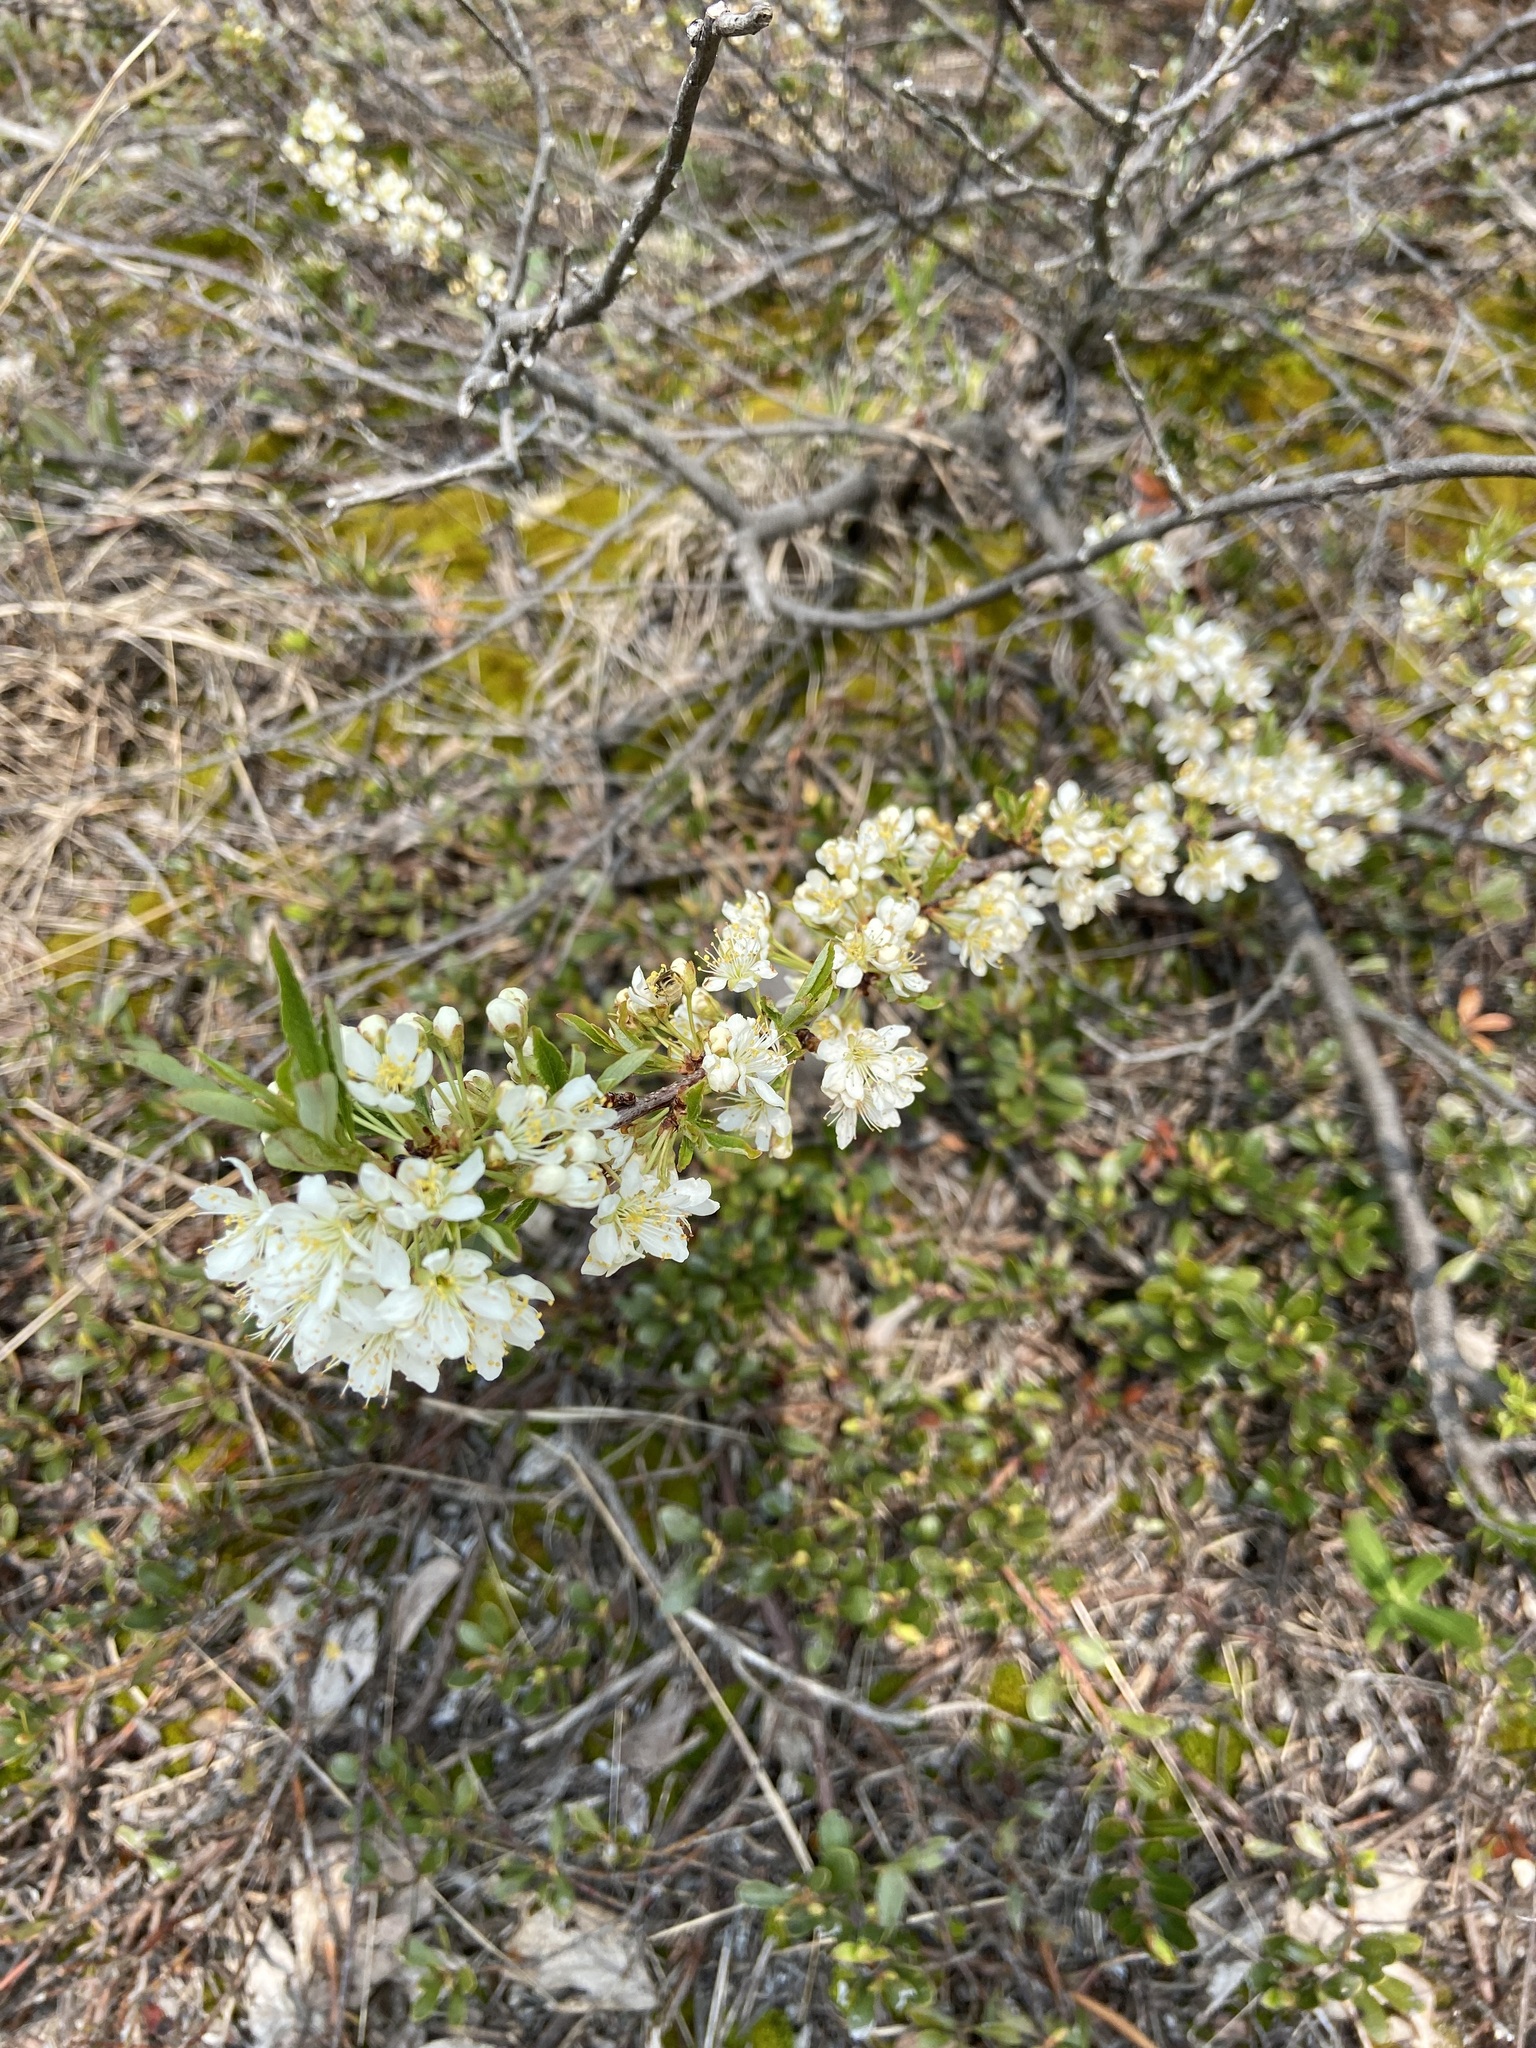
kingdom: Plantae
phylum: Tracheophyta
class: Magnoliopsida
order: Rosales
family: Rosaceae
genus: Prunus
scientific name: Prunus pumila
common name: Dwarf cherry
